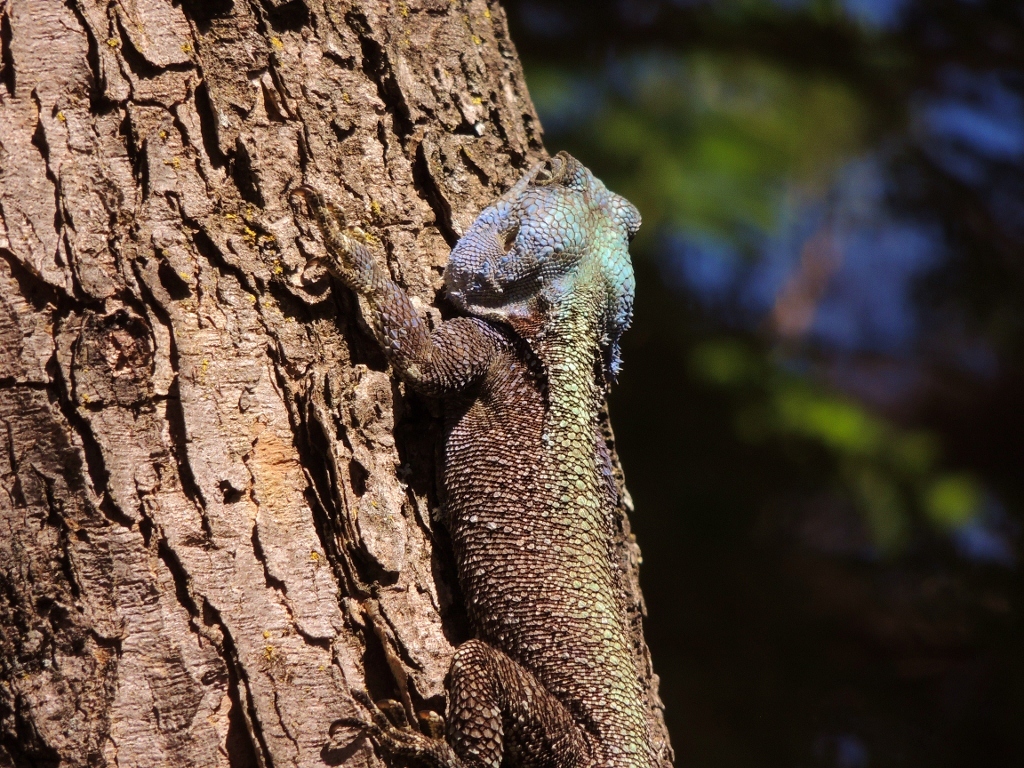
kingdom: Animalia
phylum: Chordata
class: Squamata
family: Agamidae
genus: Acanthocercus
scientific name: Acanthocercus atricollis
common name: Southern tree agama
